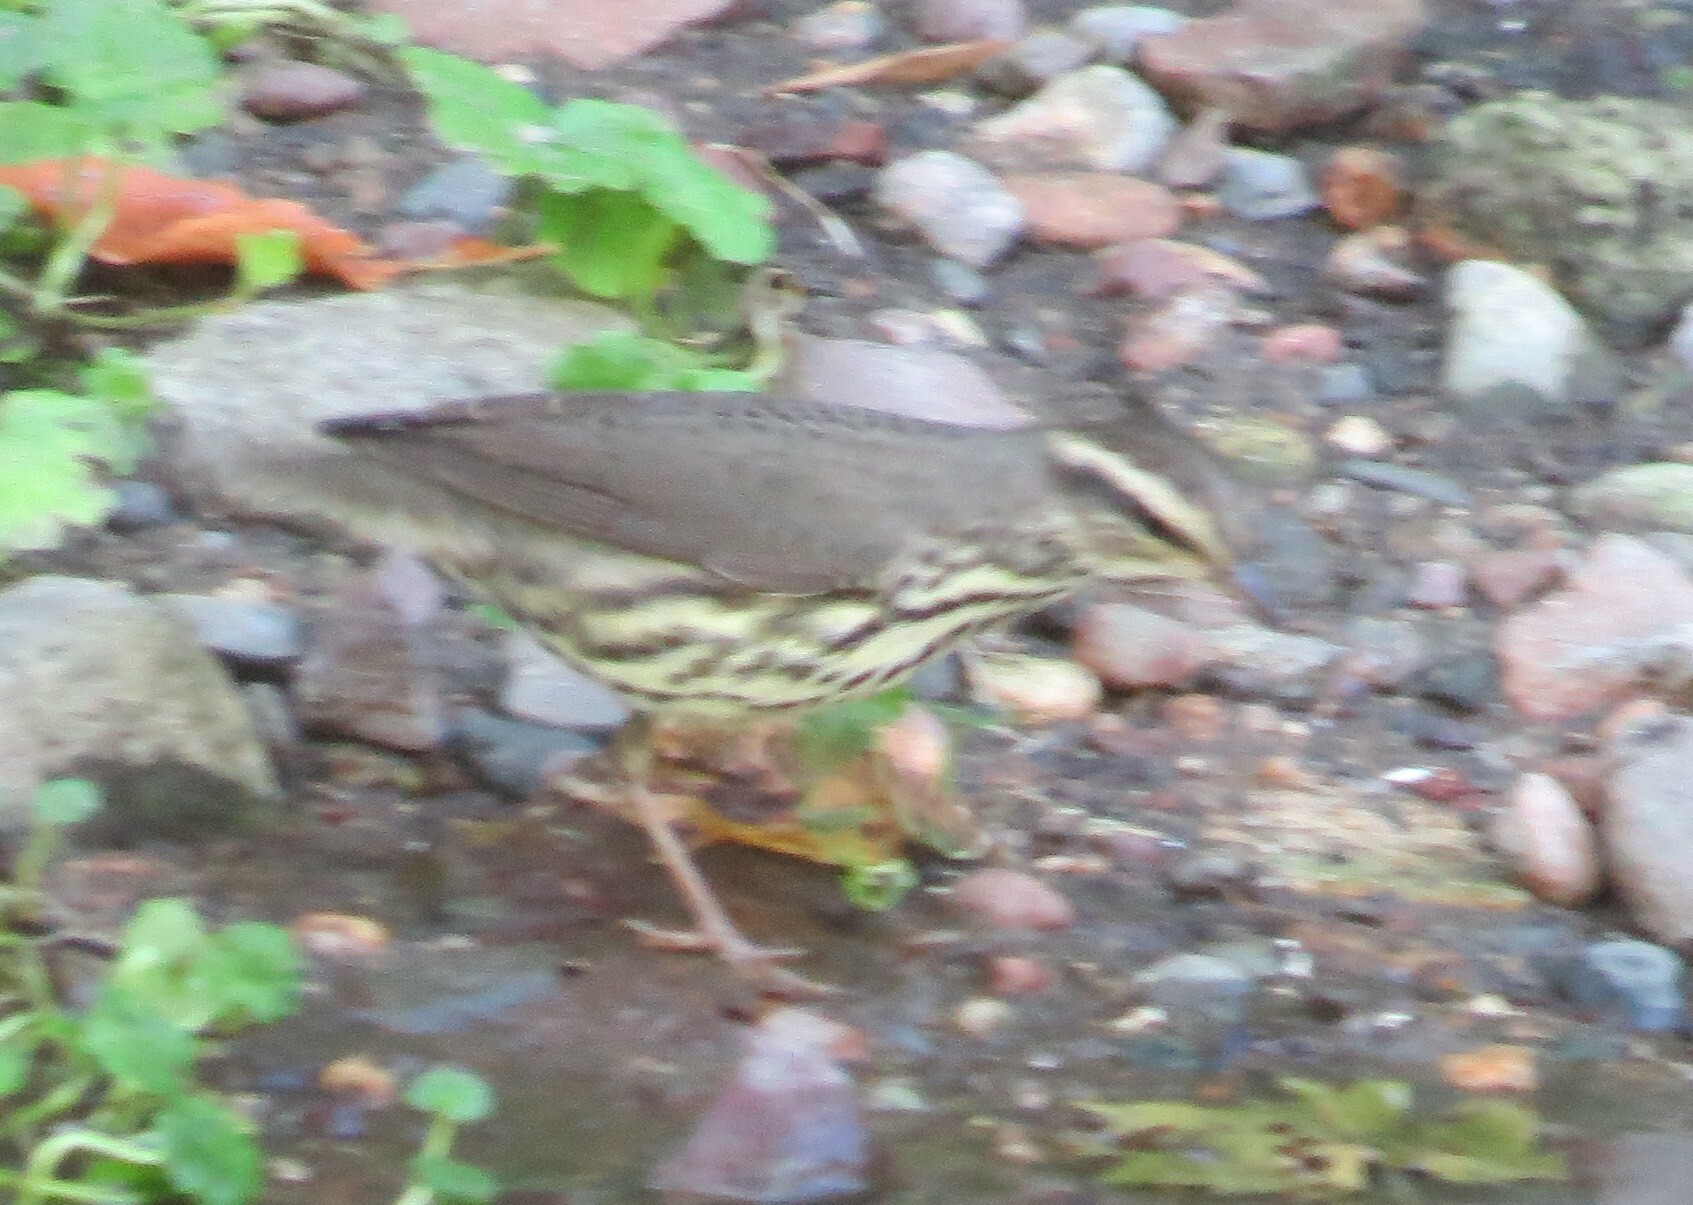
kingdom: Animalia
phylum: Chordata
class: Aves
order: Passeriformes
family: Parulidae
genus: Parkesia
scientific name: Parkesia noveboracensis
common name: Northern waterthrush
